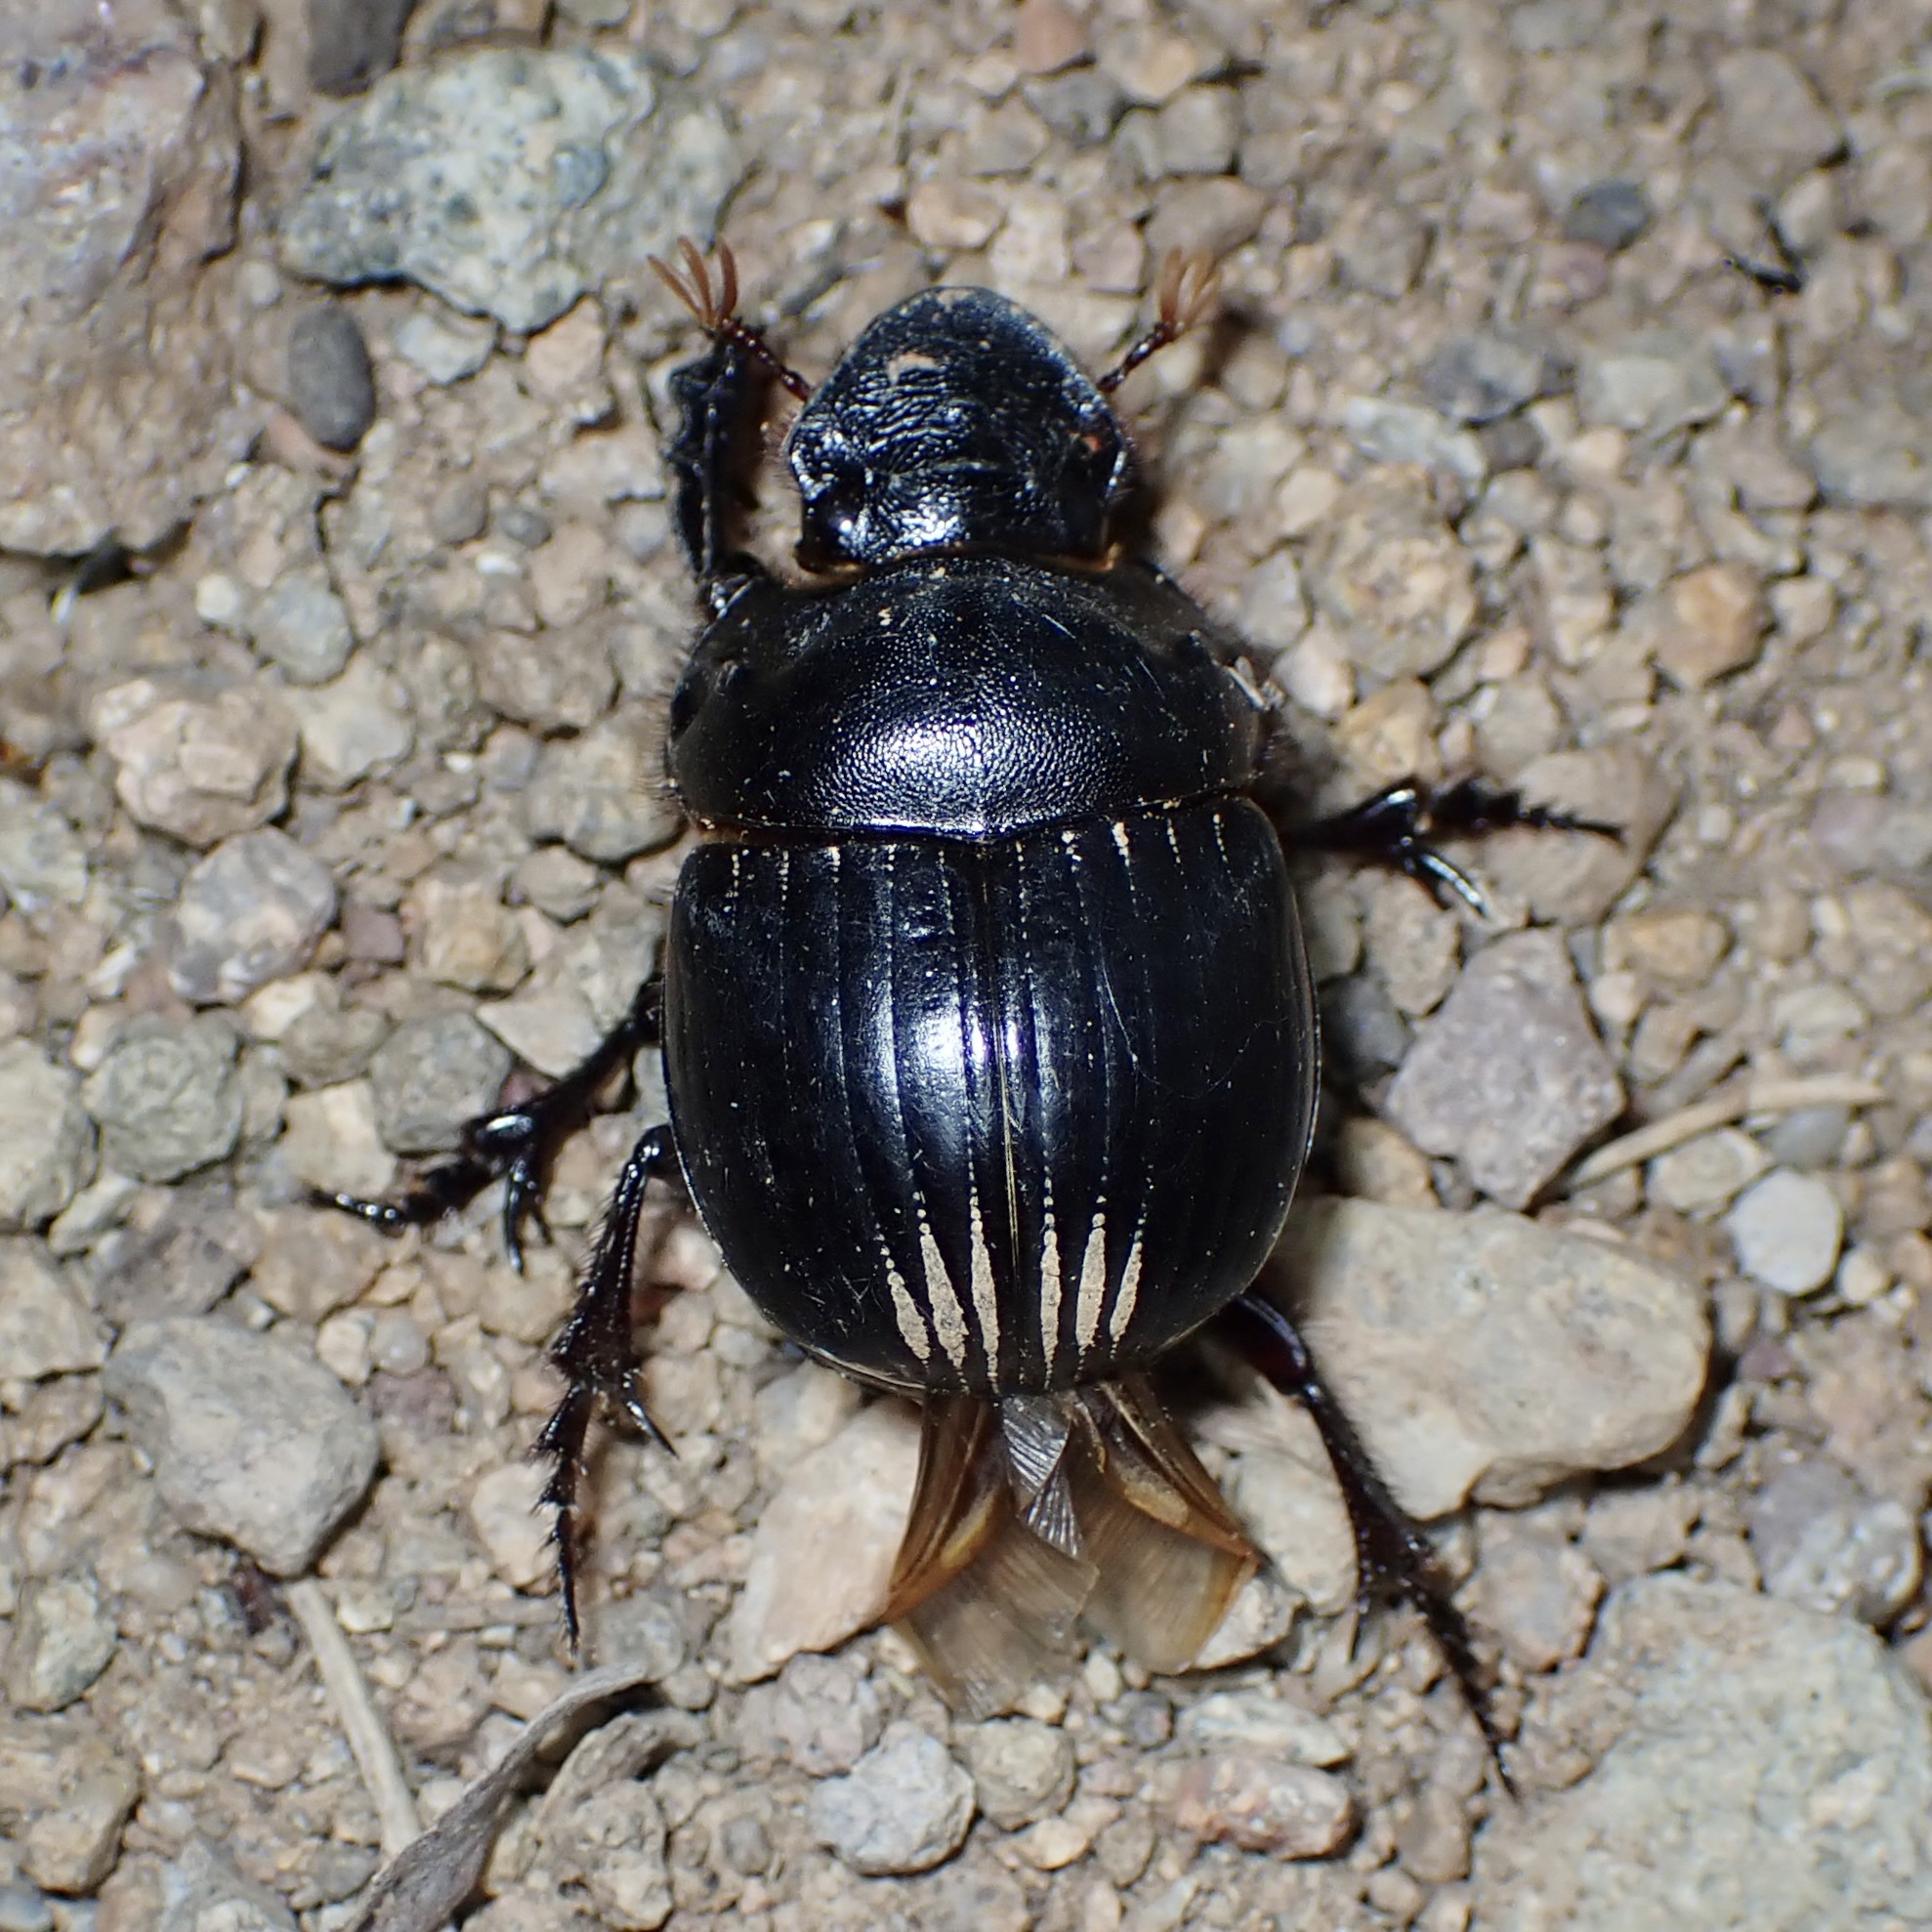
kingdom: Animalia
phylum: Arthropoda
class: Insecta
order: Coleoptera
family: Scarabaeidae
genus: Dichotomius
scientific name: Dichotomius colonicus
